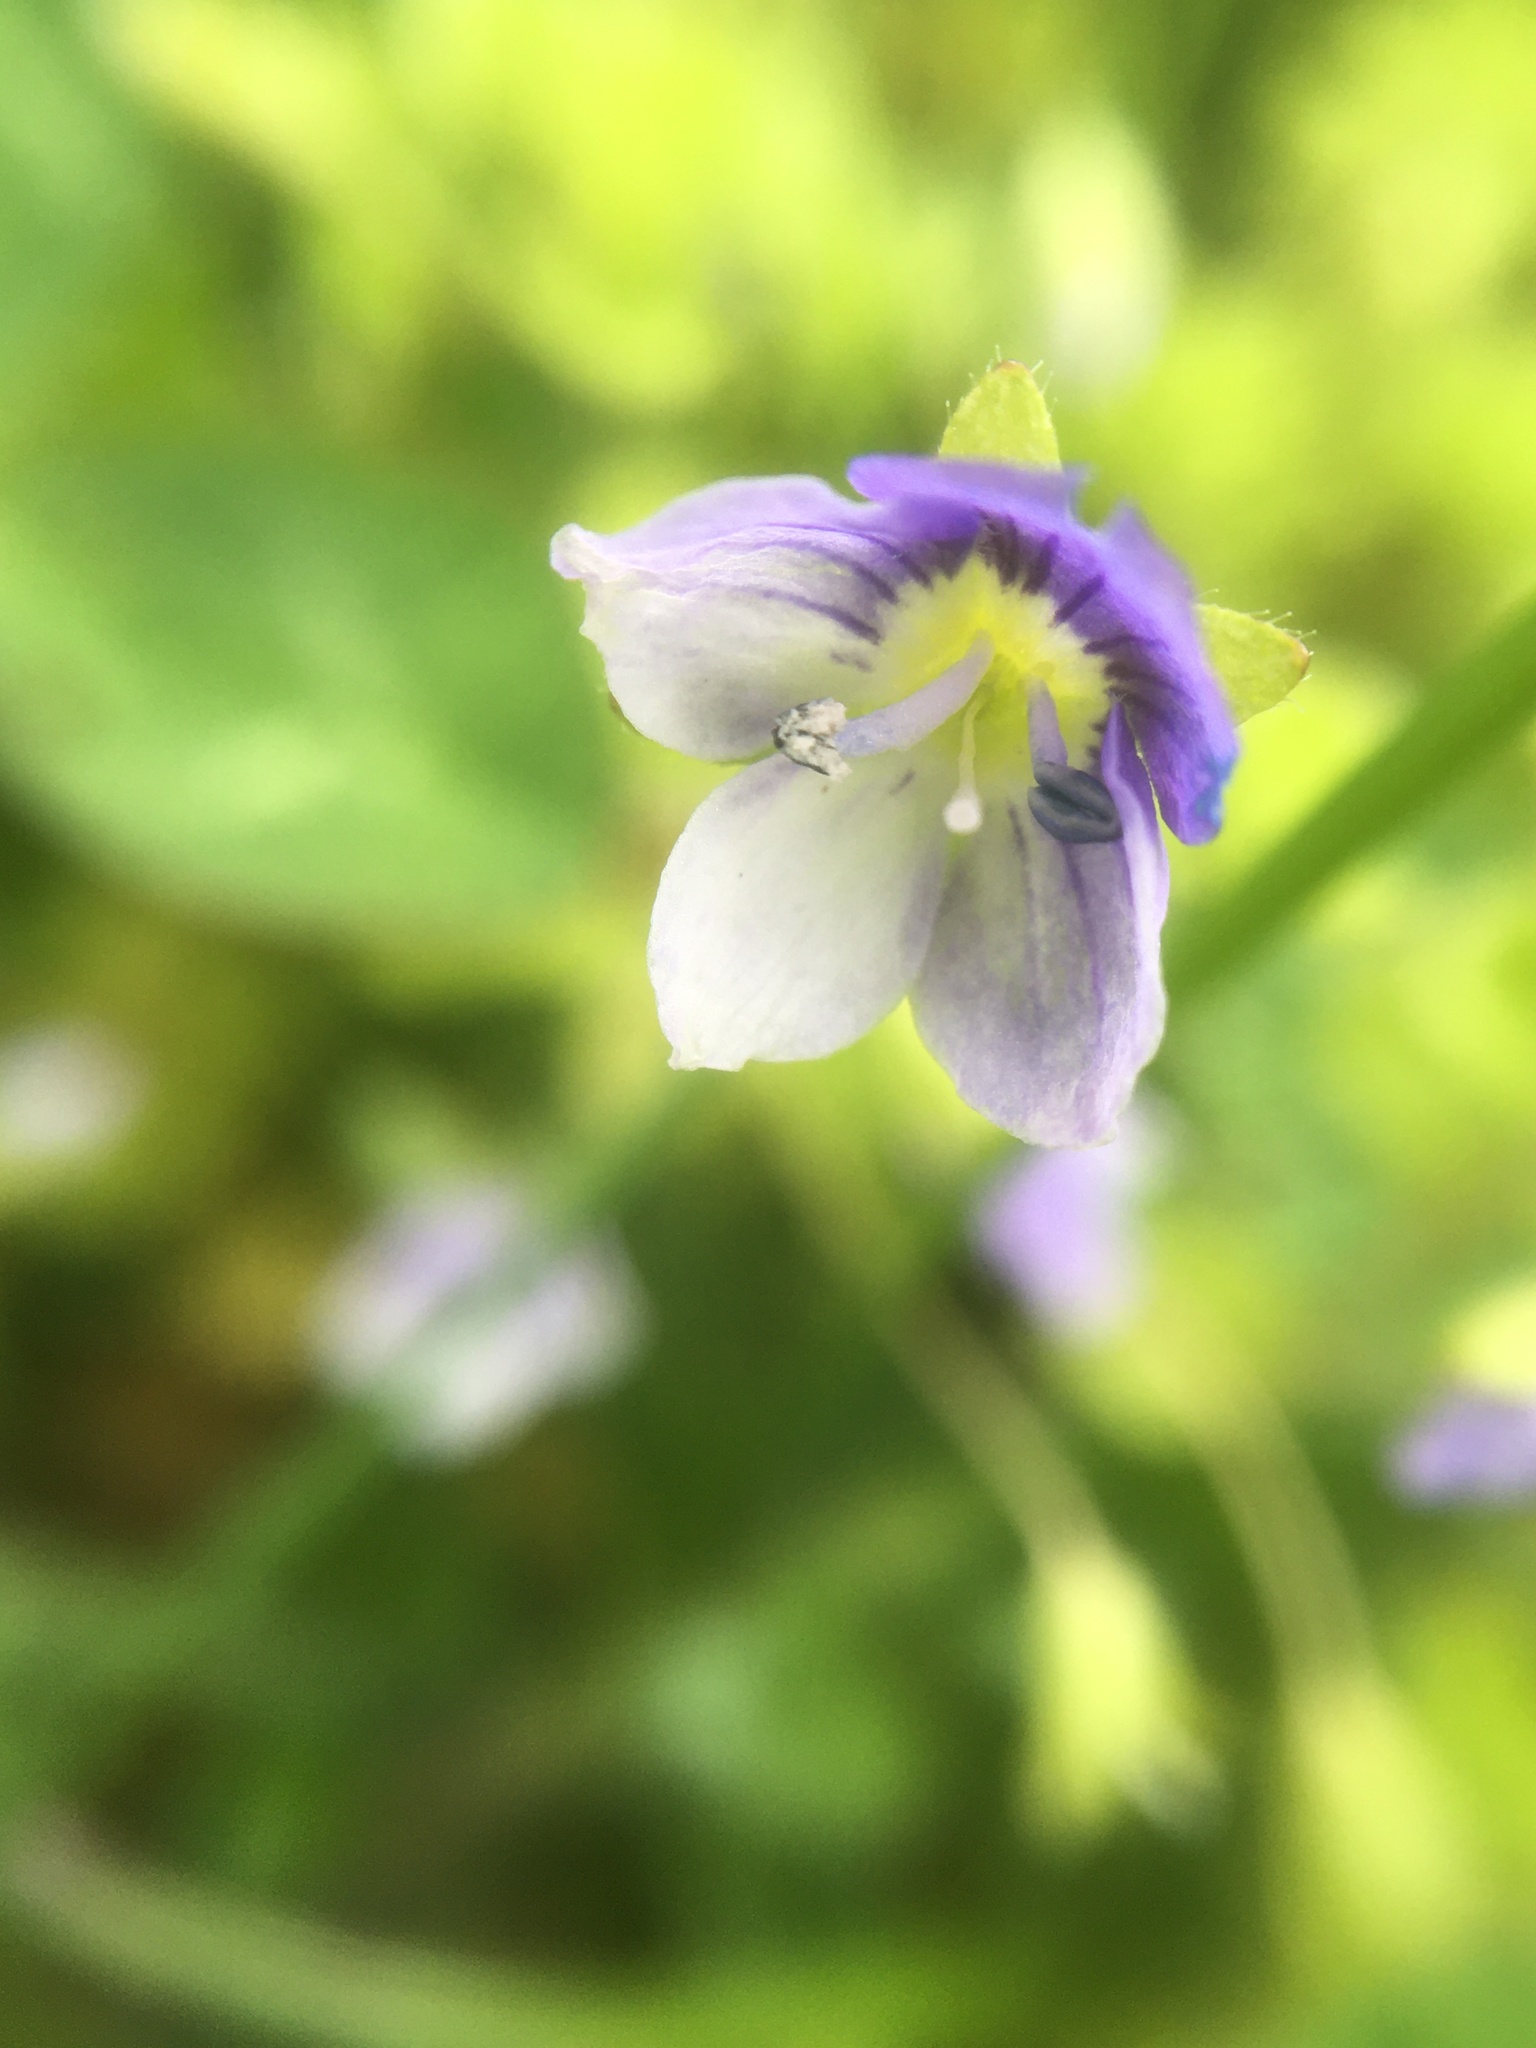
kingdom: Plantae
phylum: Tracheophyta
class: Magnoliopsida
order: Lamiales
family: Plantaginaceae
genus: Veronica
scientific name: Veronica filiformis
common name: Slender speedwell
